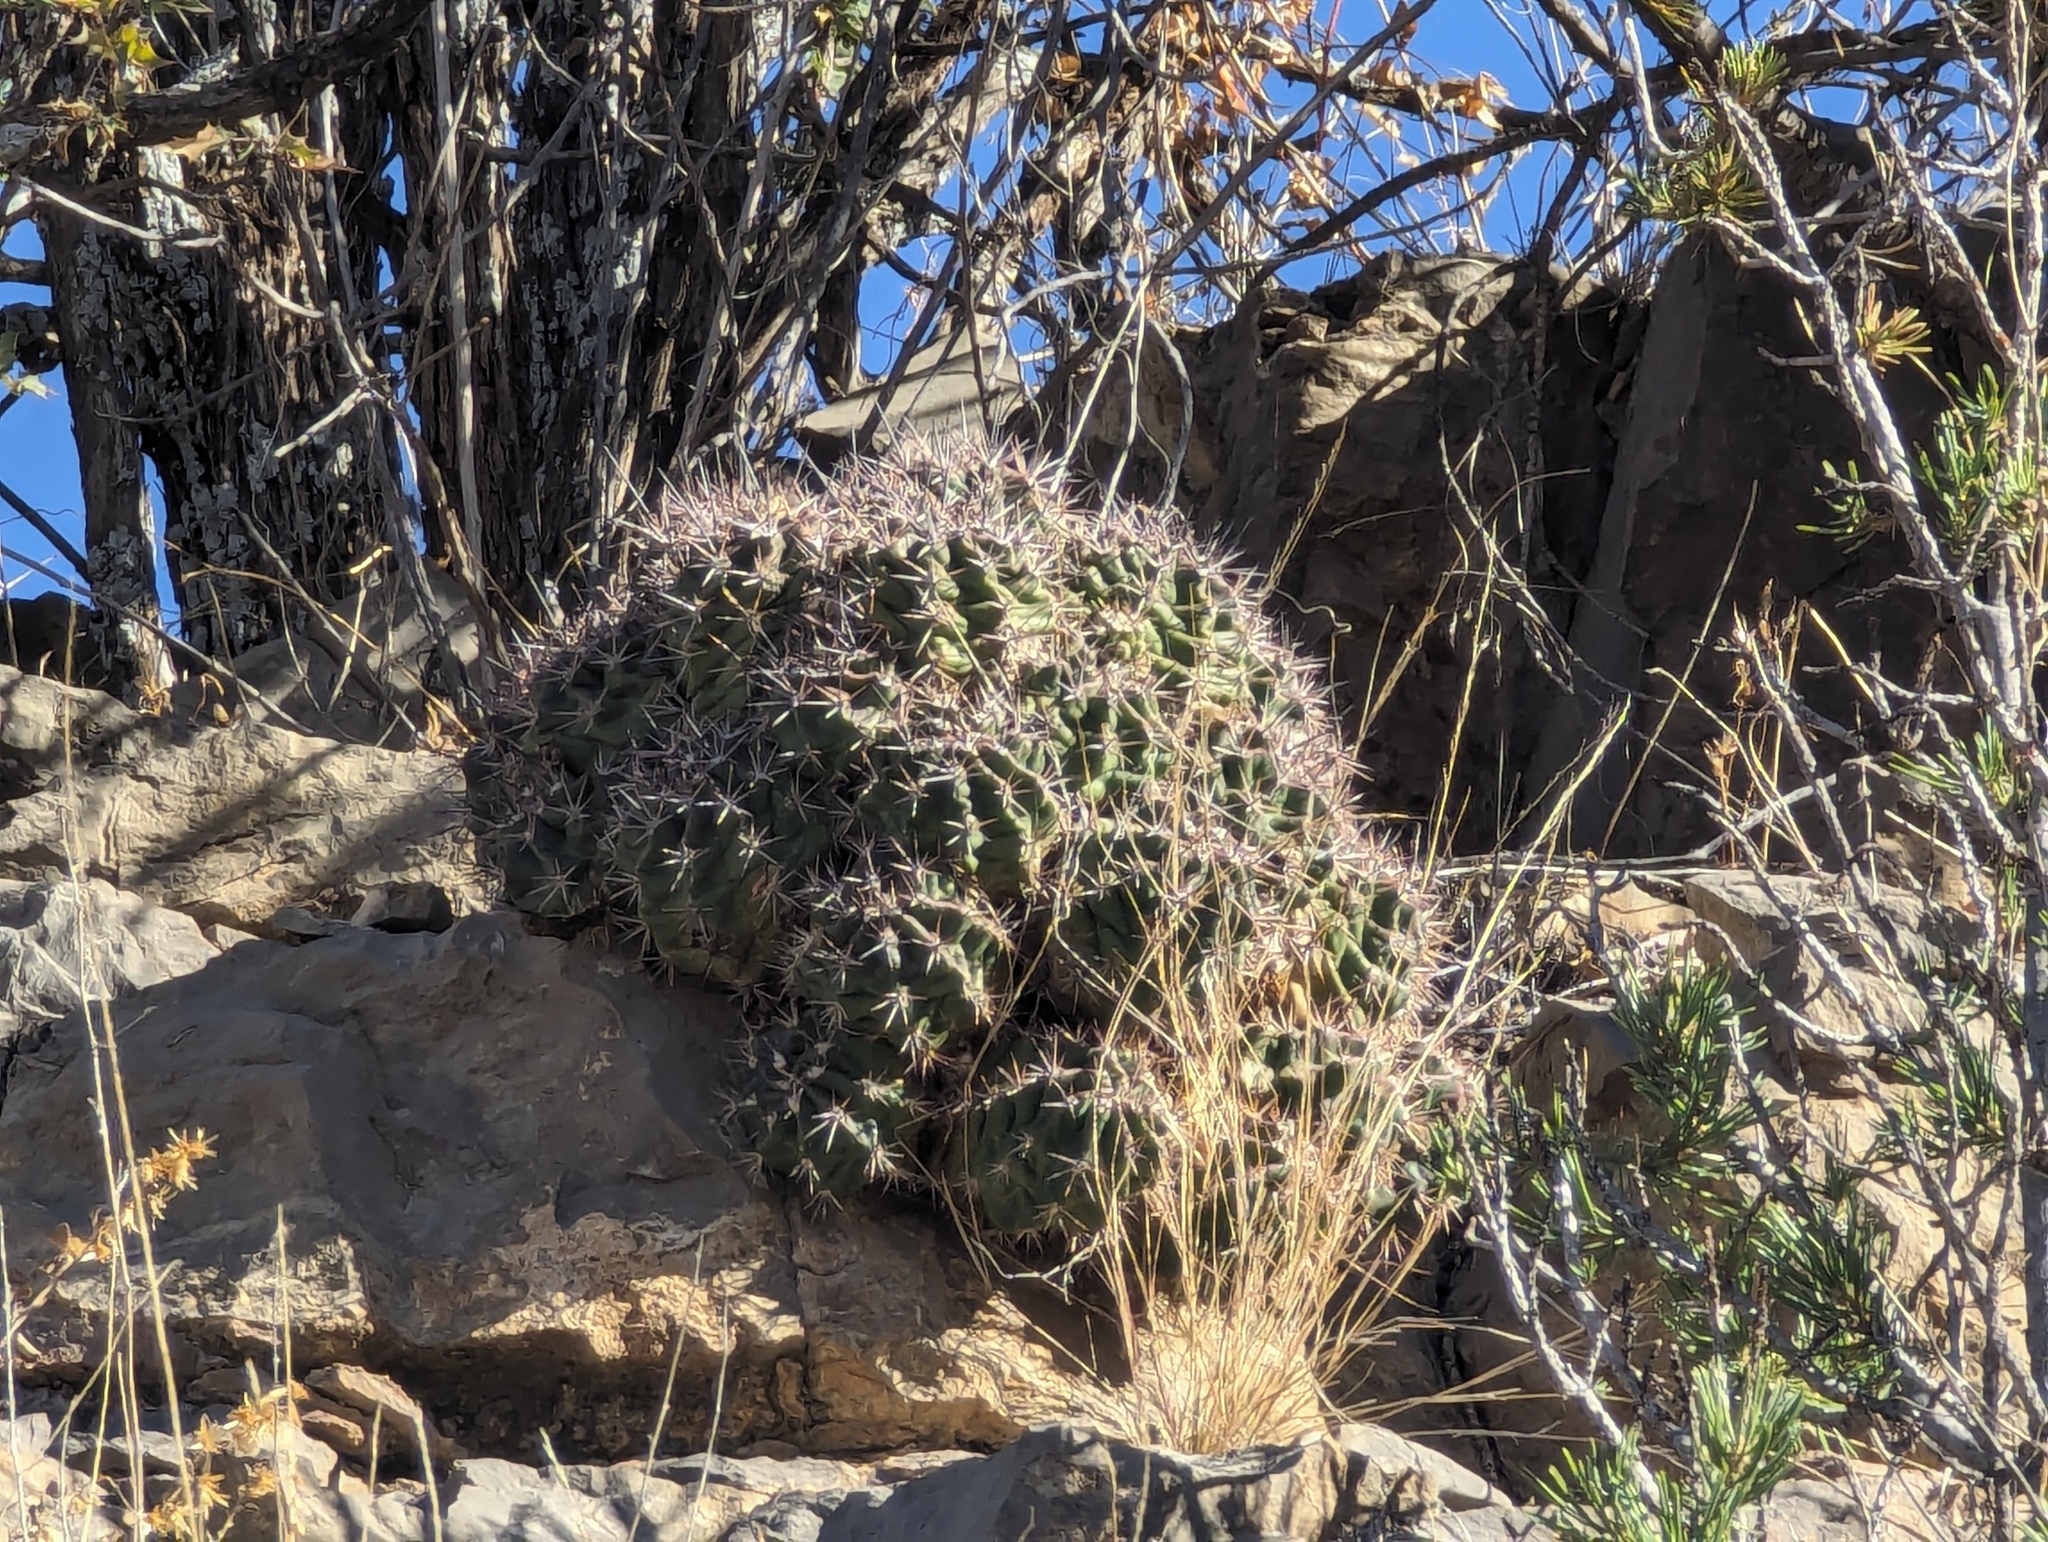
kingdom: Plantae
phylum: Tracheophyta
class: Magnoliopsida
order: Caryophyllales
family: Cactaceae
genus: Echinocereus
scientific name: Echinocereus coccineus
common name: Scarlet hedgehog cactus
